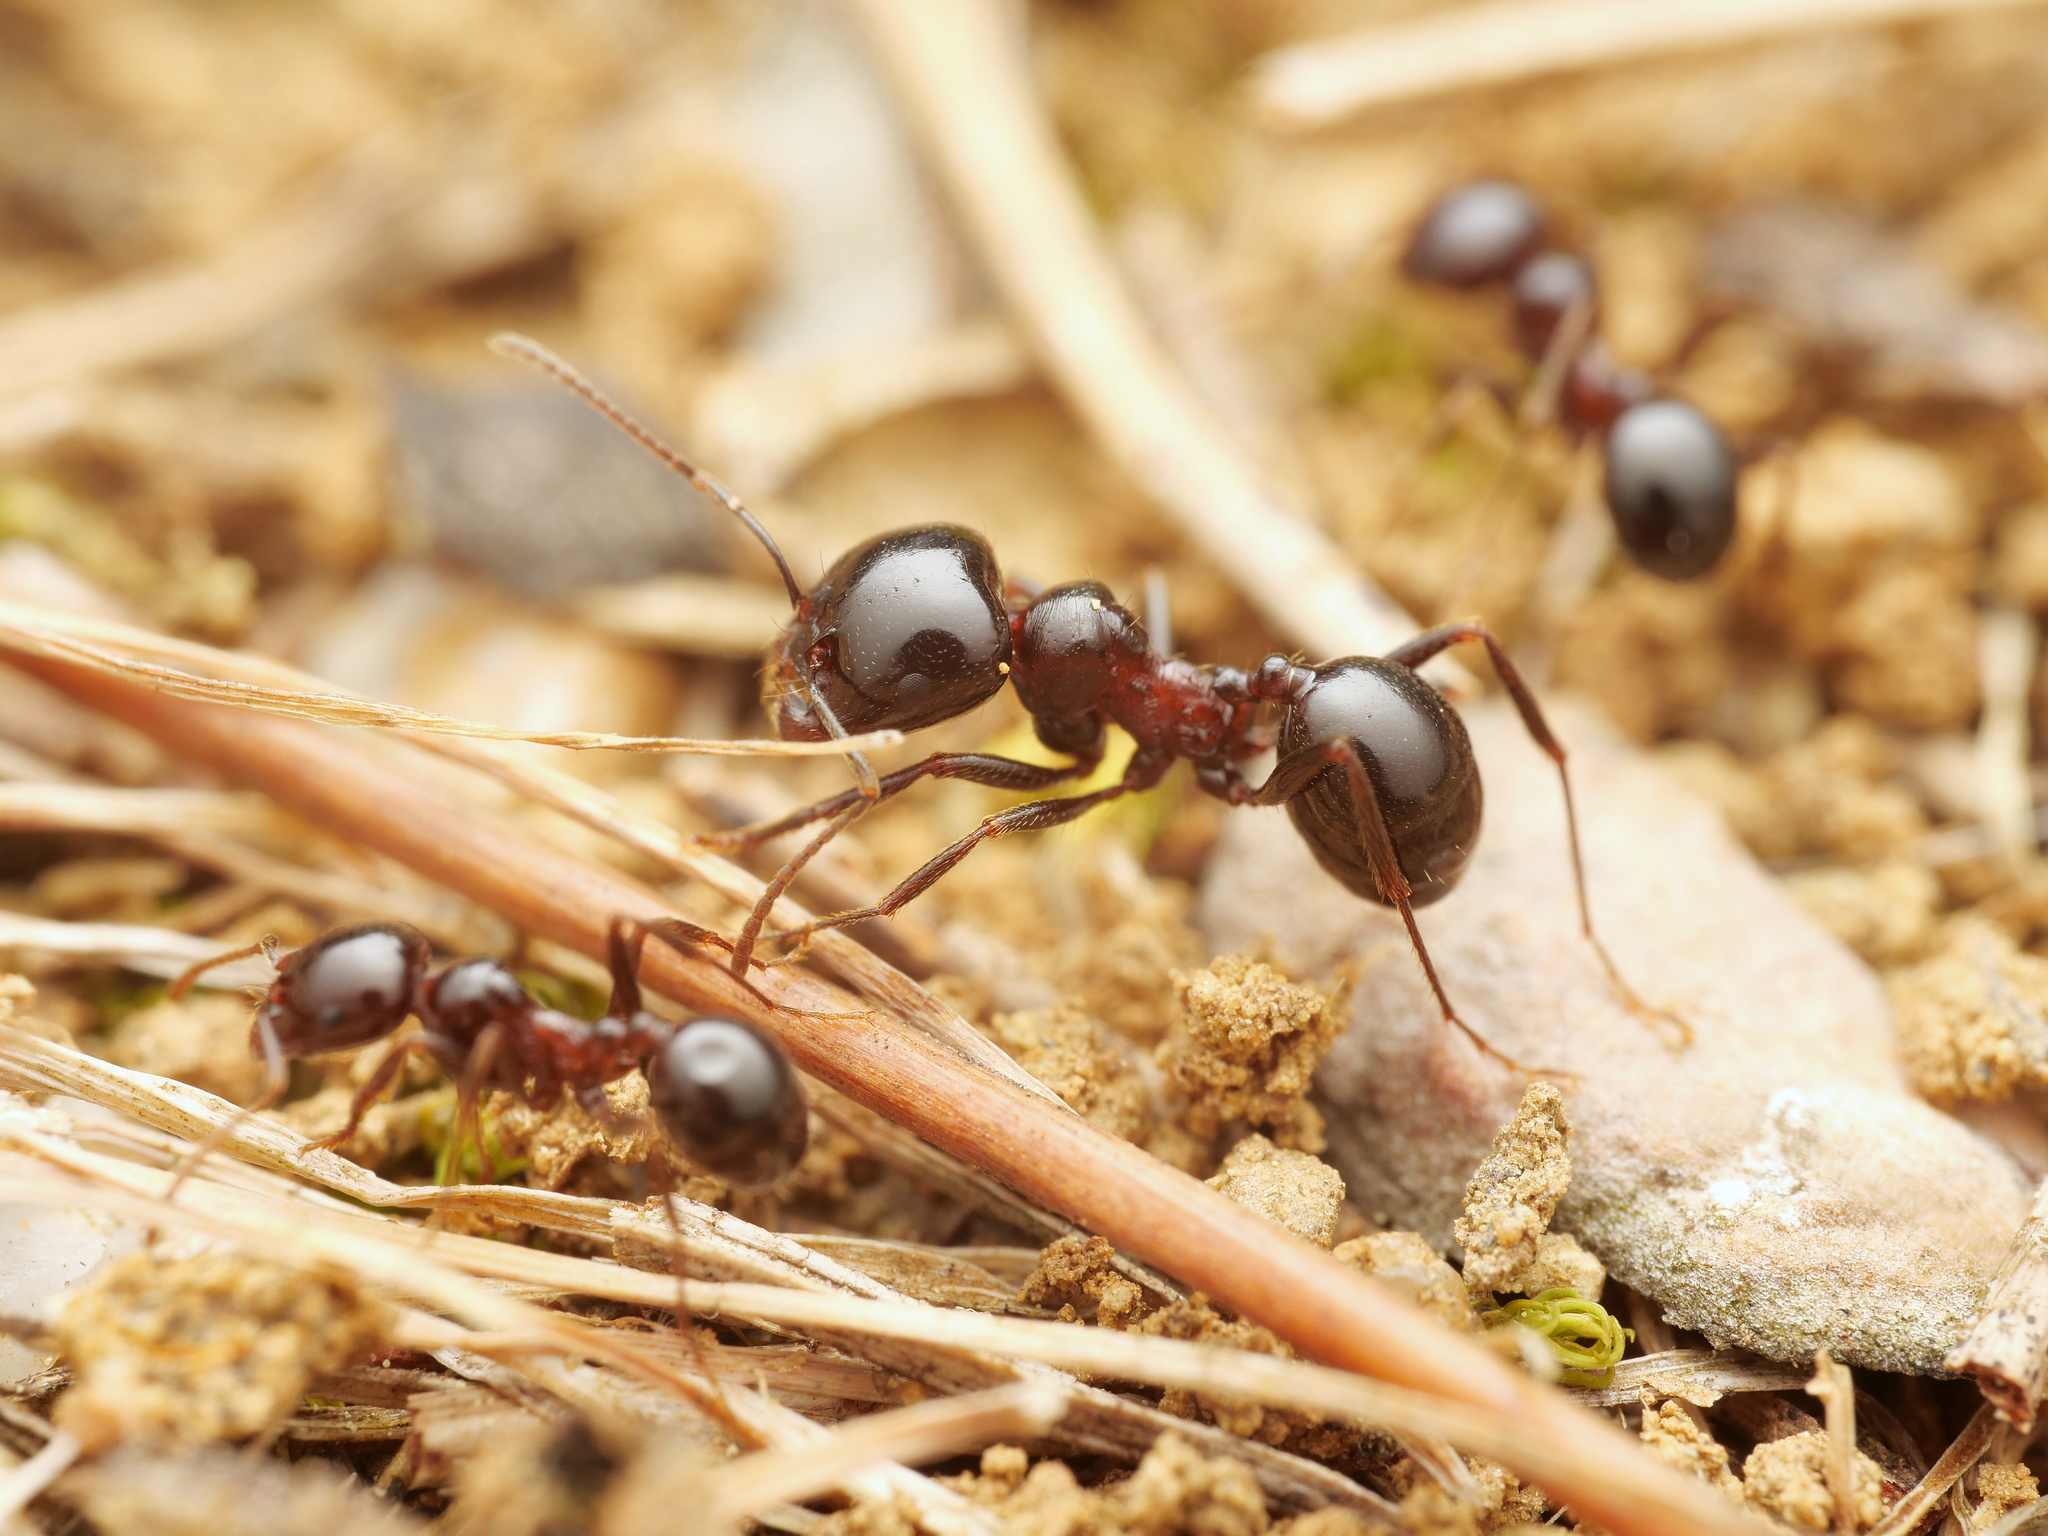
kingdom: Animalia
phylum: Arthropoda
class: Insecta
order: Hymenoptera
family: Formicidae
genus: Messor
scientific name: Messor wasmanni
